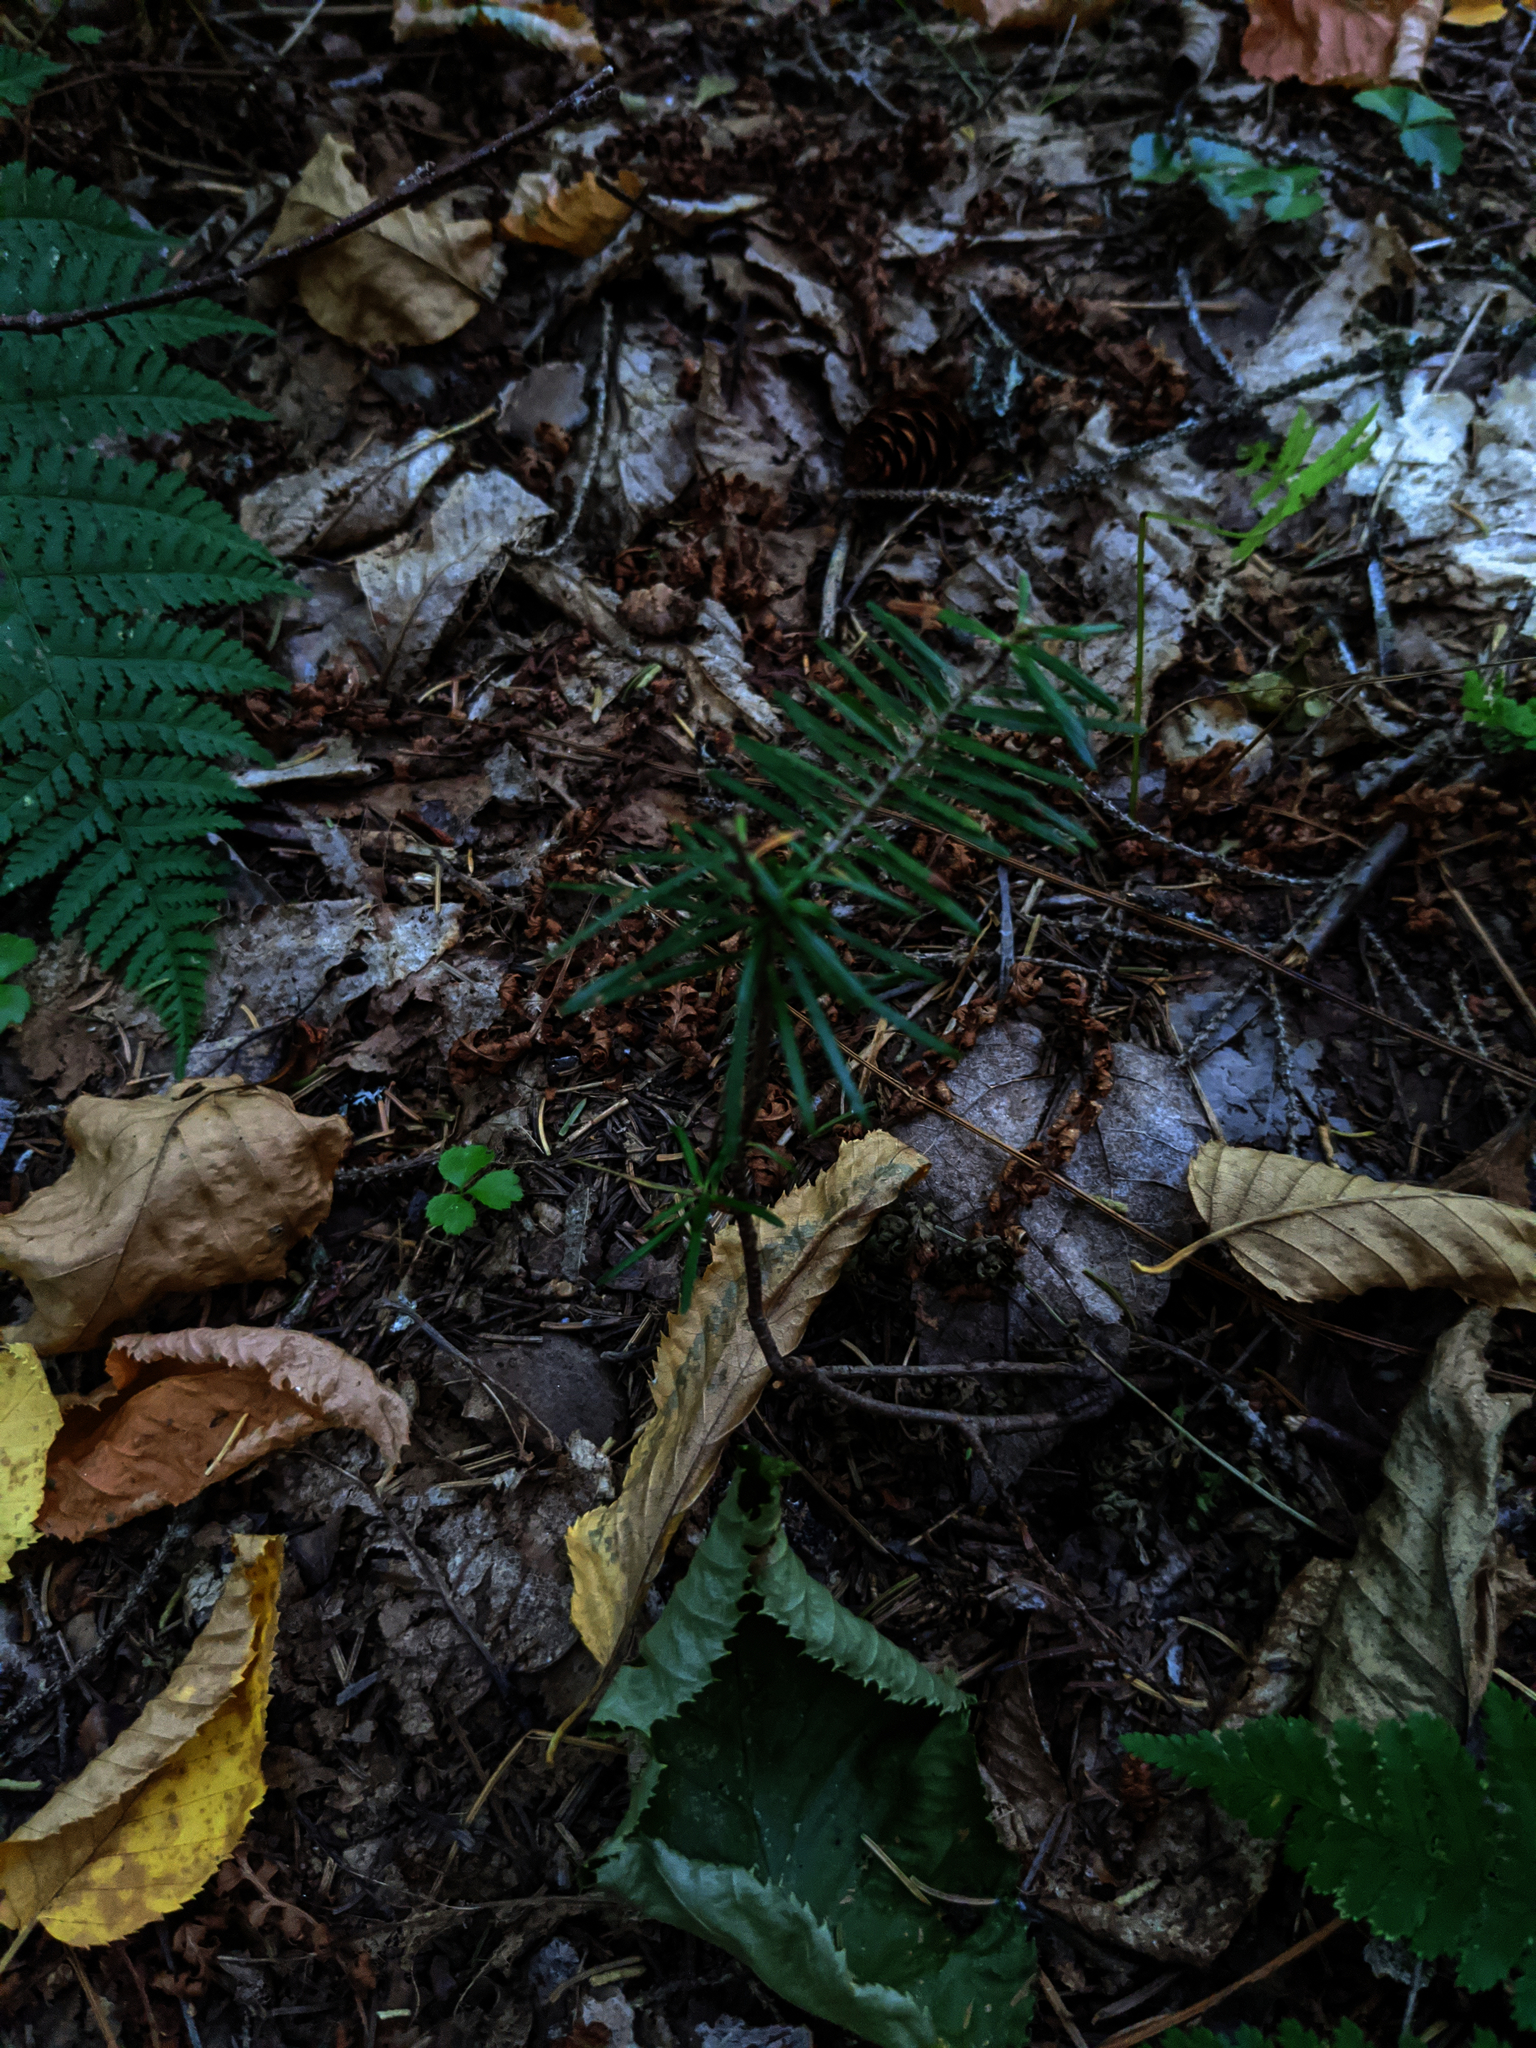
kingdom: Plantae
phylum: Tracheophyta
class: Pinopsida
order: Pinales
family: Pinaceae
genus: Abies
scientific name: Abies balsamea
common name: Balsam fir
